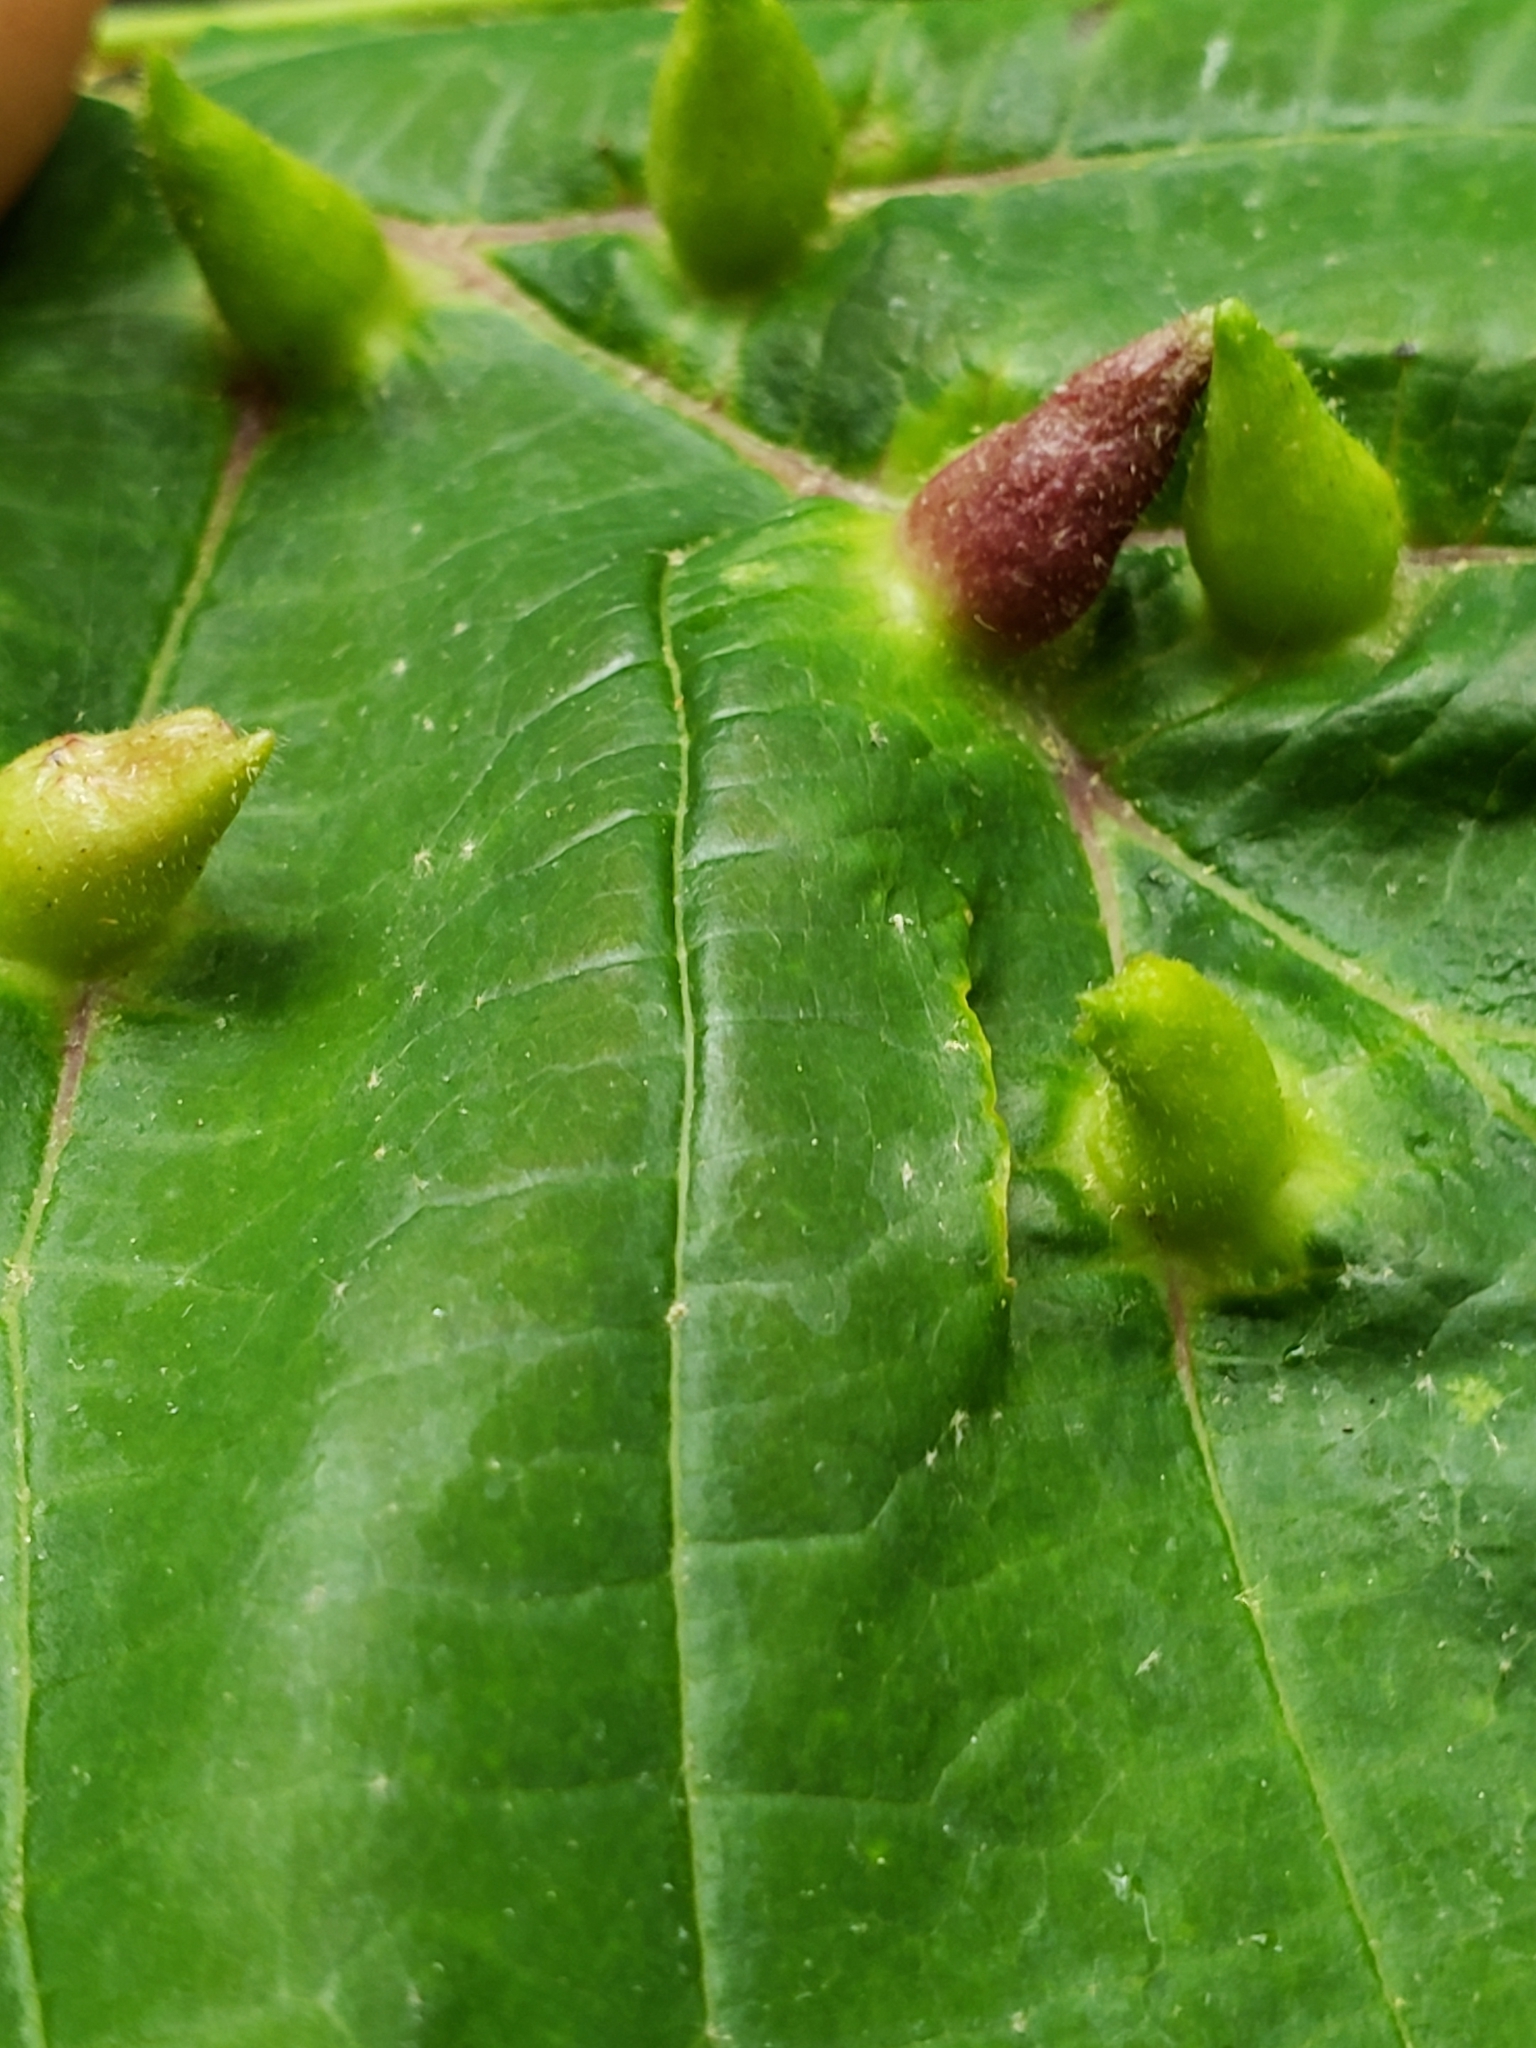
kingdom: Animalia
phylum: Arthropoda
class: Insecta
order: Hemiptera
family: Aphididae
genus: Hormaphis
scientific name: Hormaphis hamamelidis
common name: Witch-hazel cone gall aphid
